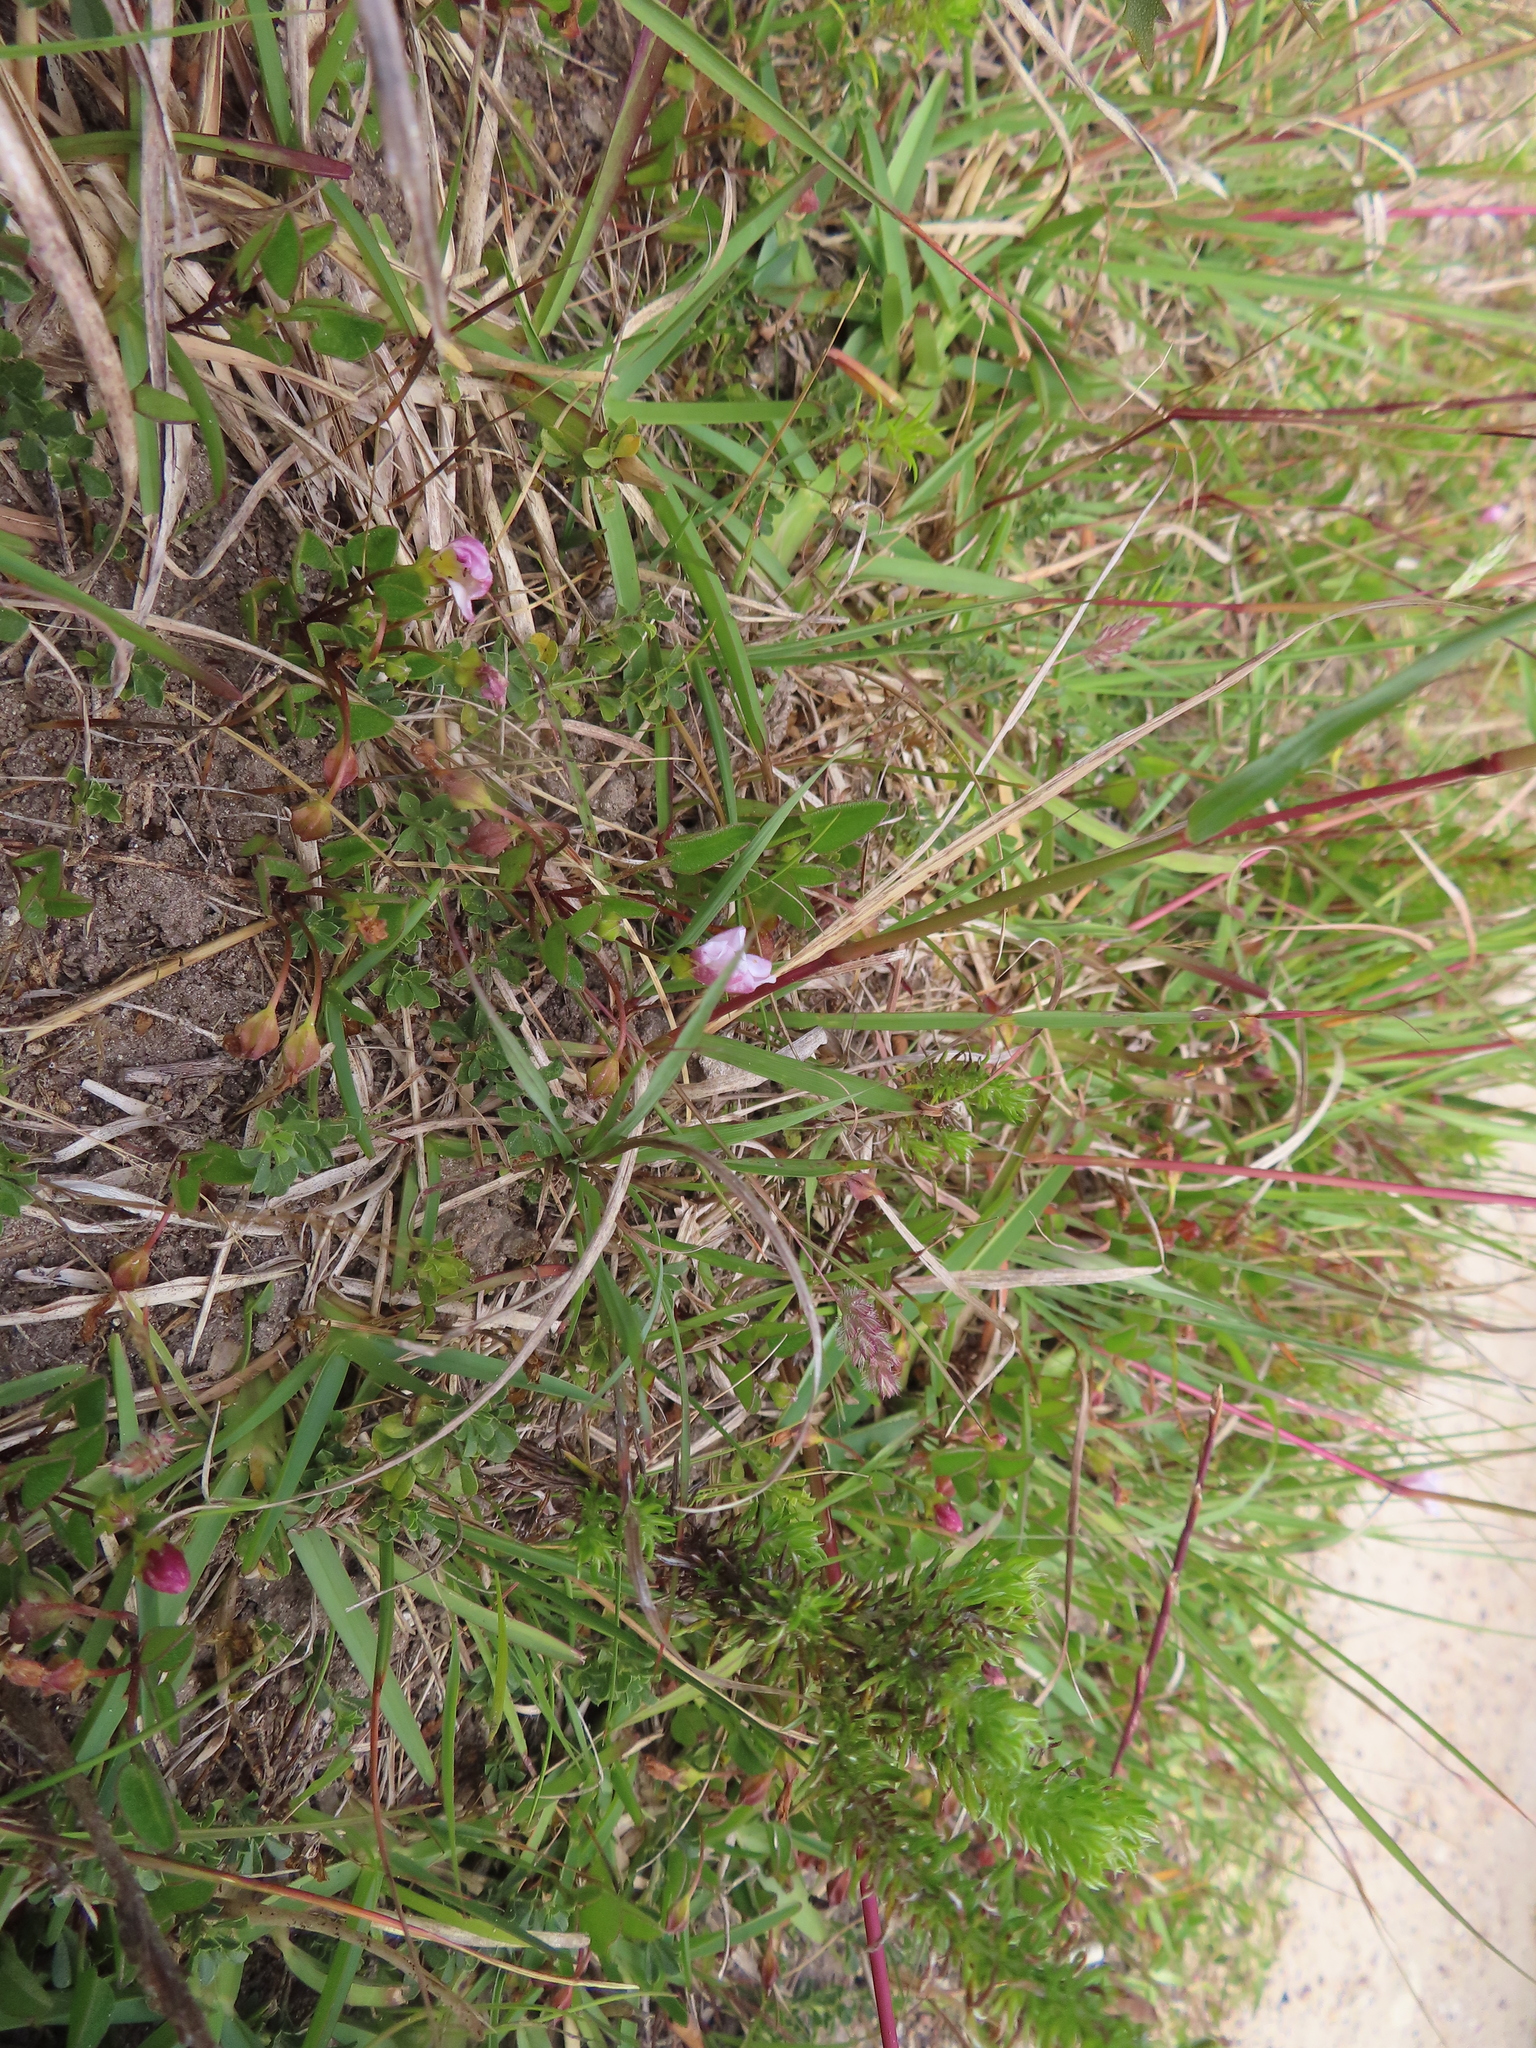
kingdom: Plantae
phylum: Tracheophyta
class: Magnoliopsida
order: Solanales
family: Convolvulaceae
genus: Falkia
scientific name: Falkia repens
